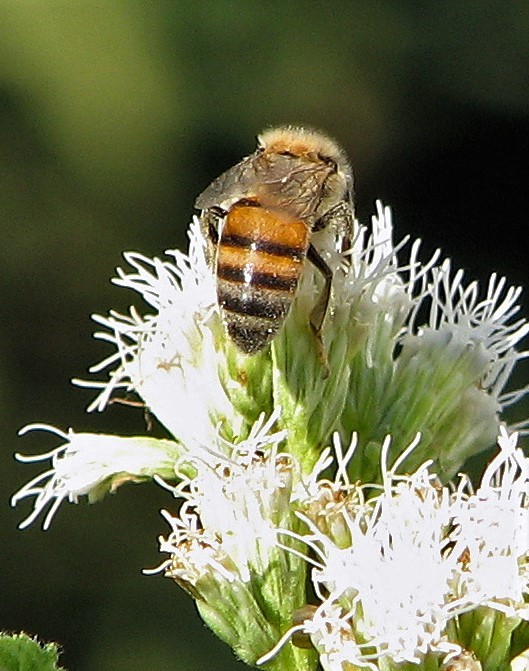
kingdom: Animalia
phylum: Arthropoda
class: Insecta
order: Hymenoptera
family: Apidae
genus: Apis
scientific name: Apis mellifera
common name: Honey bee
